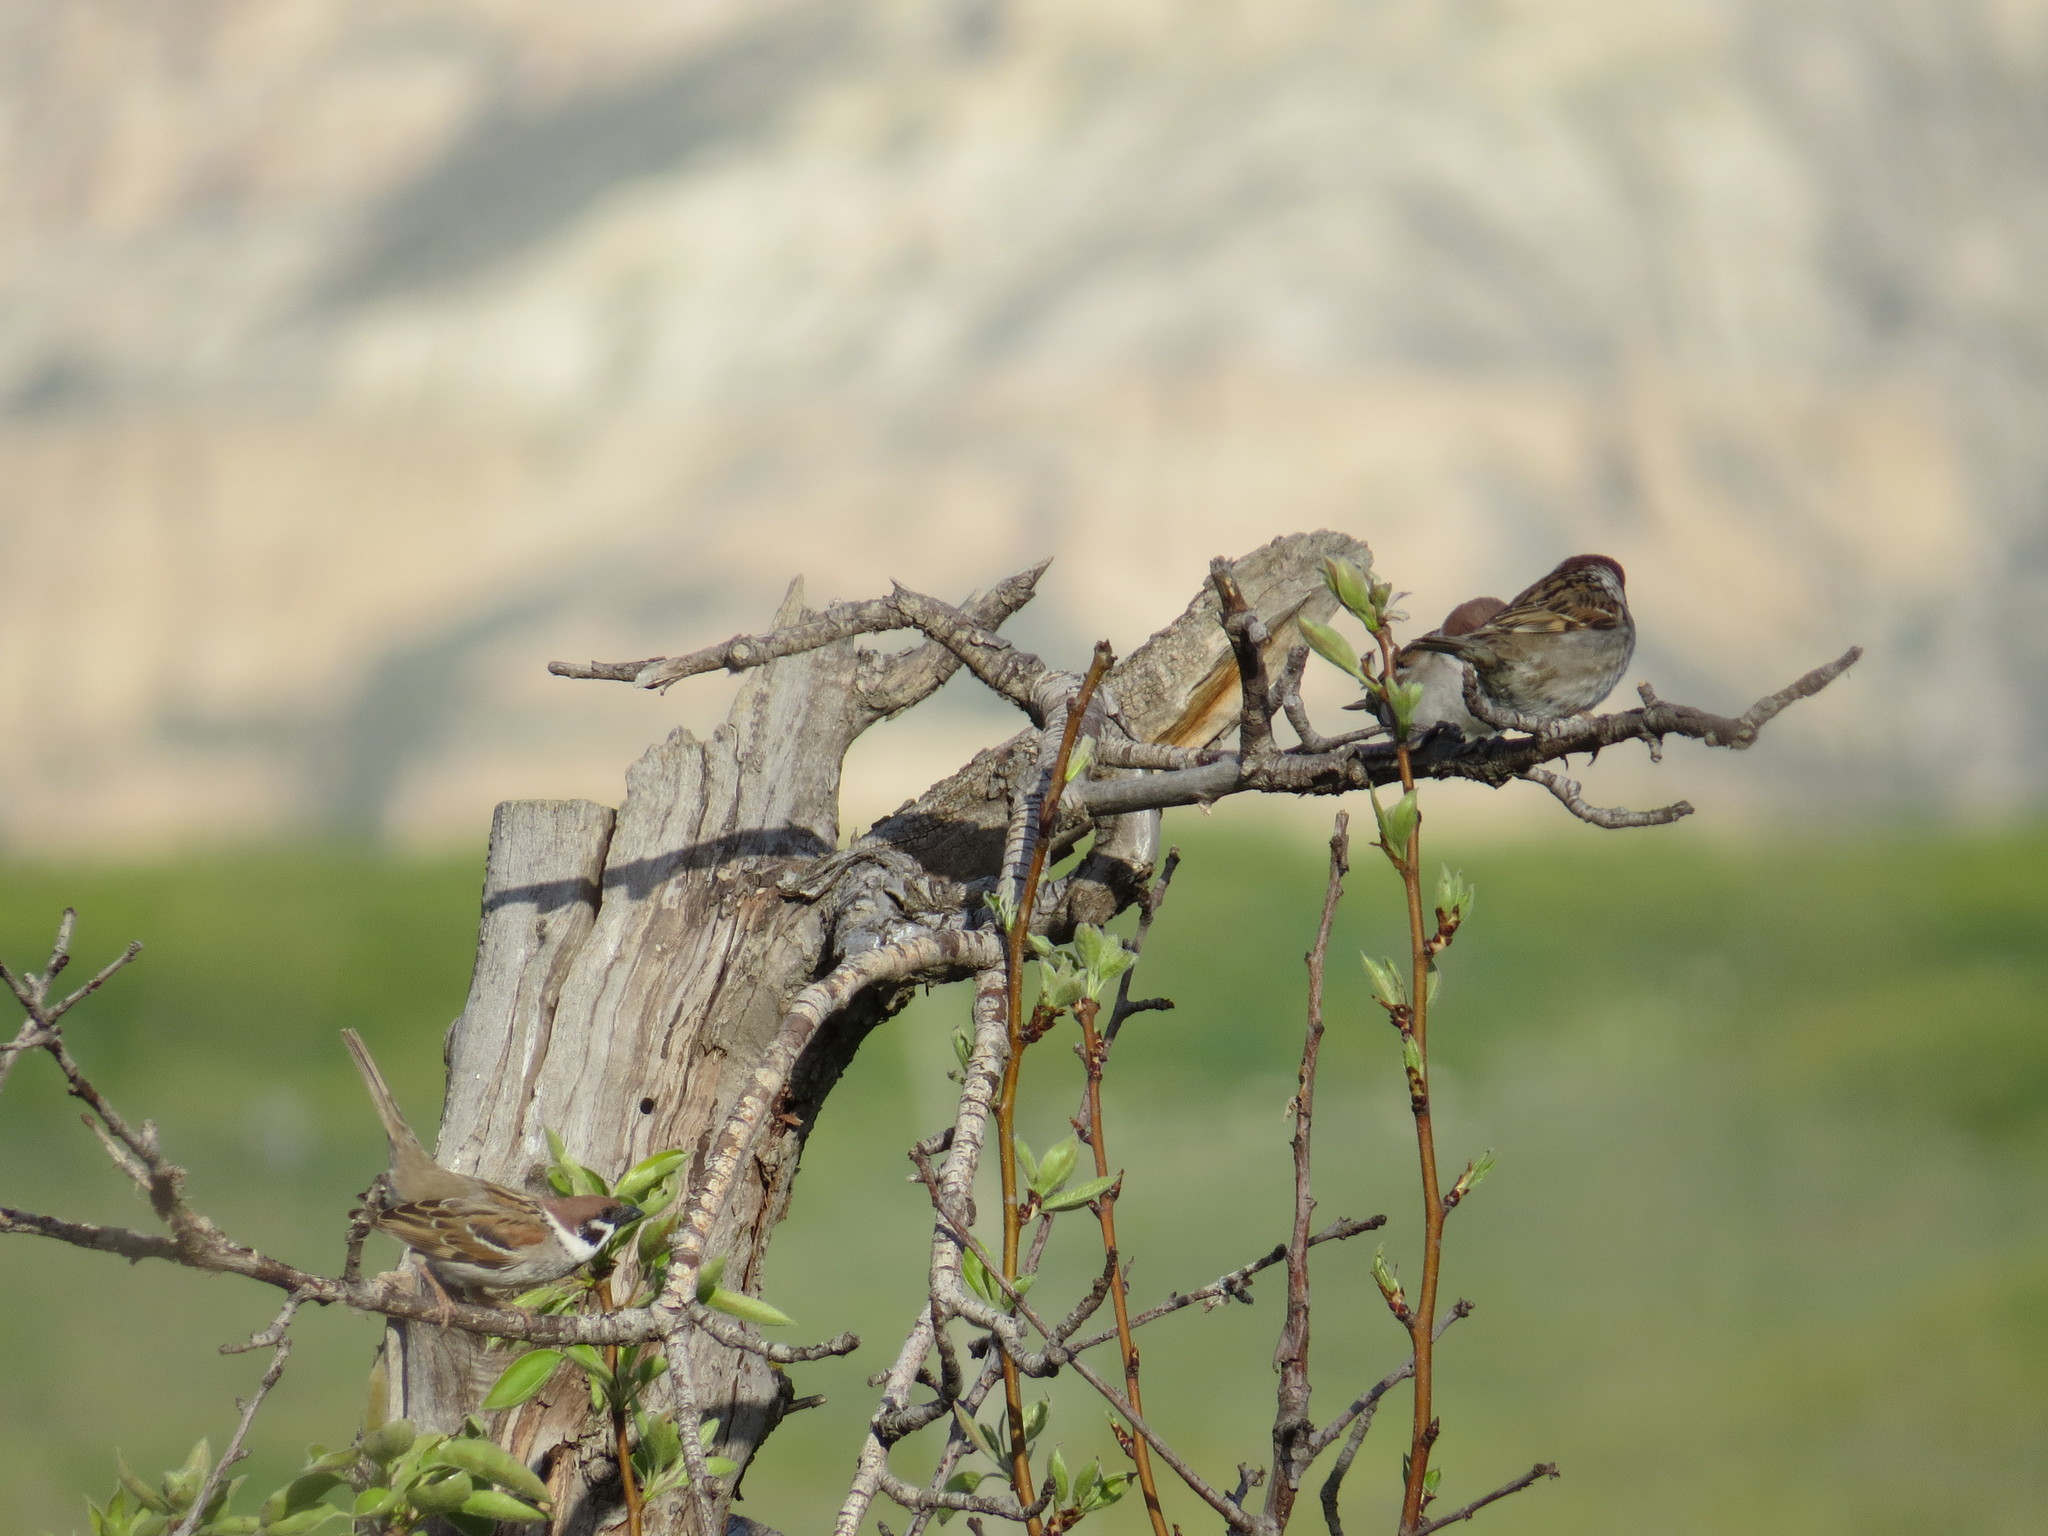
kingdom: Animalia
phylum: Chordata
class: Aves
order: Passeriformes
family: Passeridae
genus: Passer
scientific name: Passer montanus
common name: Eurasian tree sparrow
